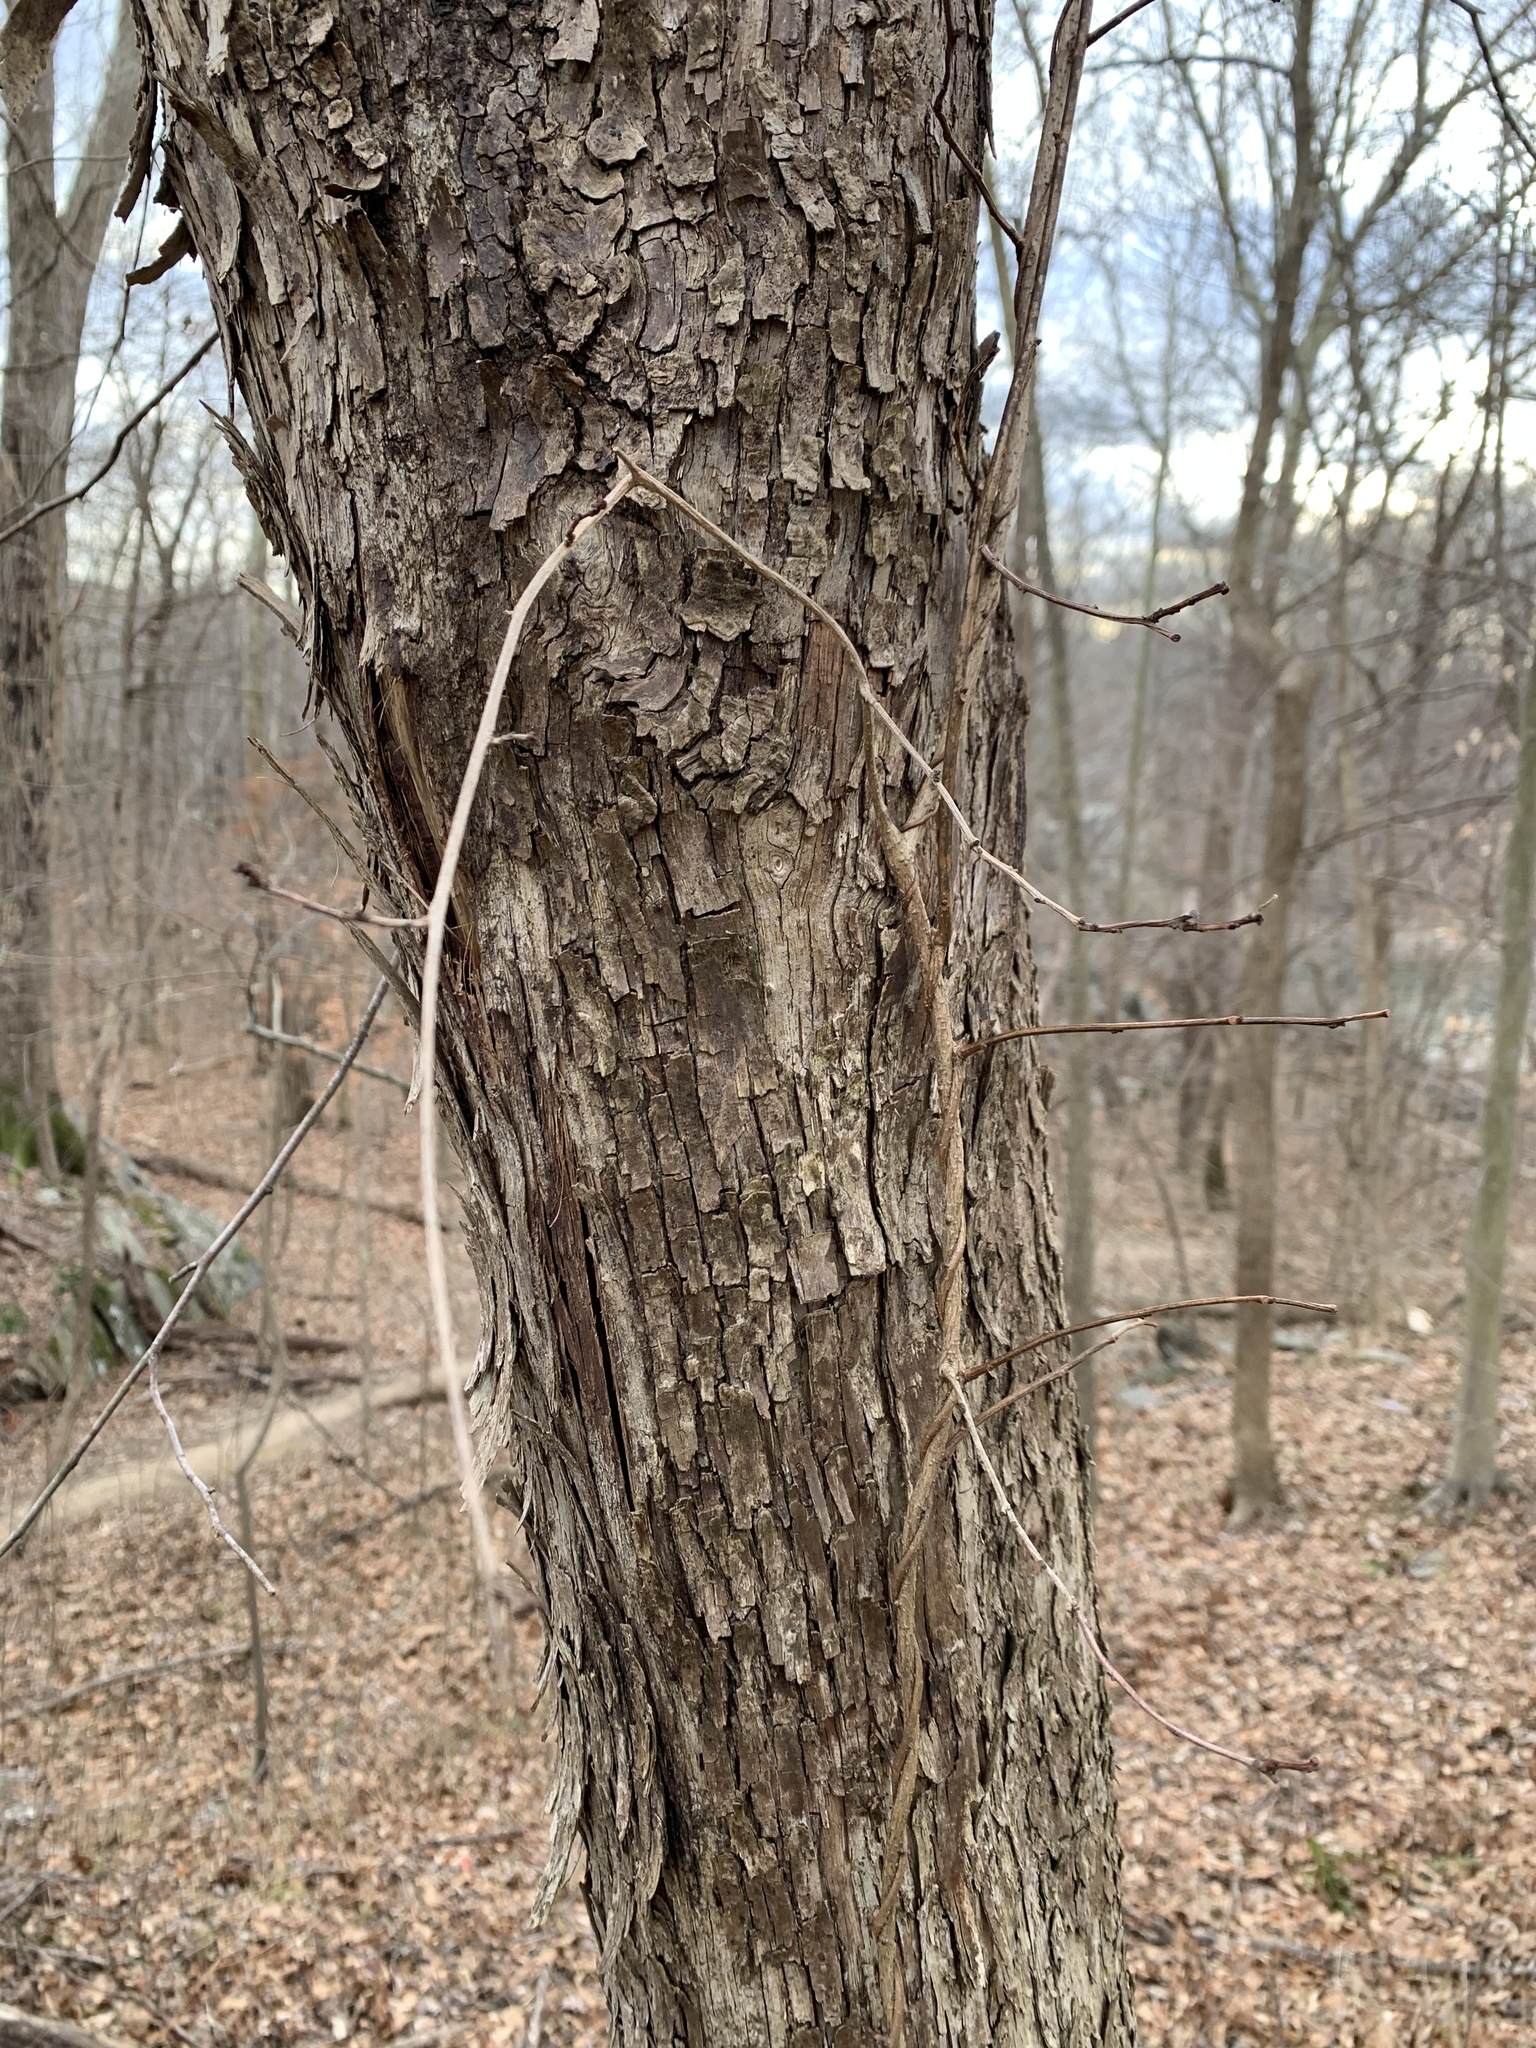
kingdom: Plantae
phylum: Tracheophyta
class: Magnoliopsida
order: Fagales
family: Betulaceae
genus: Ostrya
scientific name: Ostrya virginiana
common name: Ironwood
